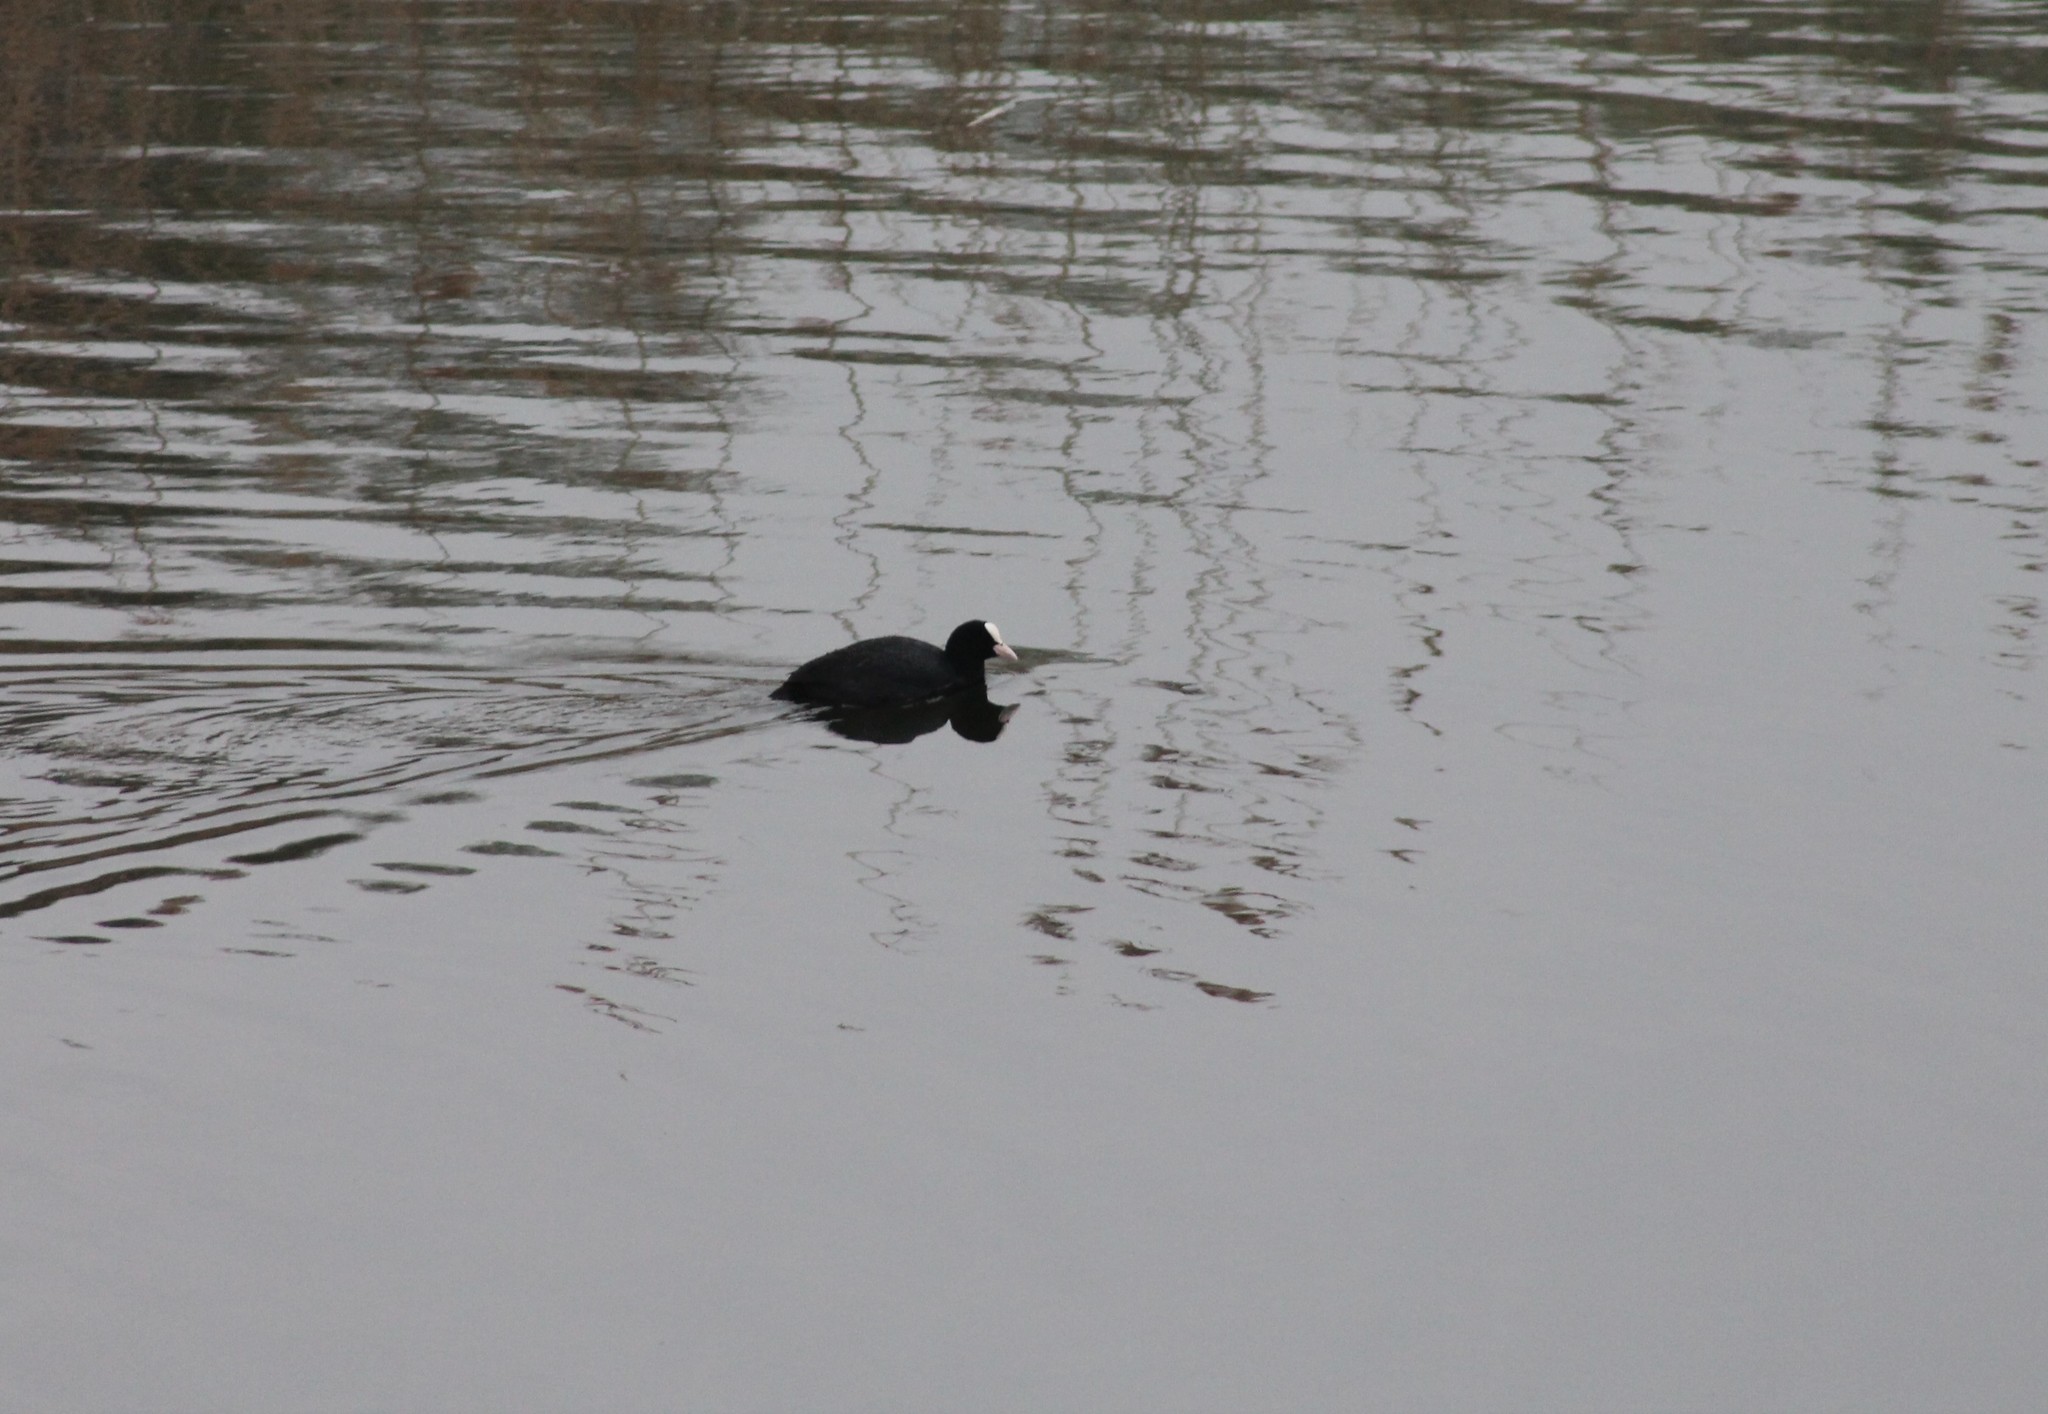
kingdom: Animalia
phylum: Chordata
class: Aves
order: Gruiformes
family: Rallidae
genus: Fulica
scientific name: Fulica atra
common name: Eurasian coot
